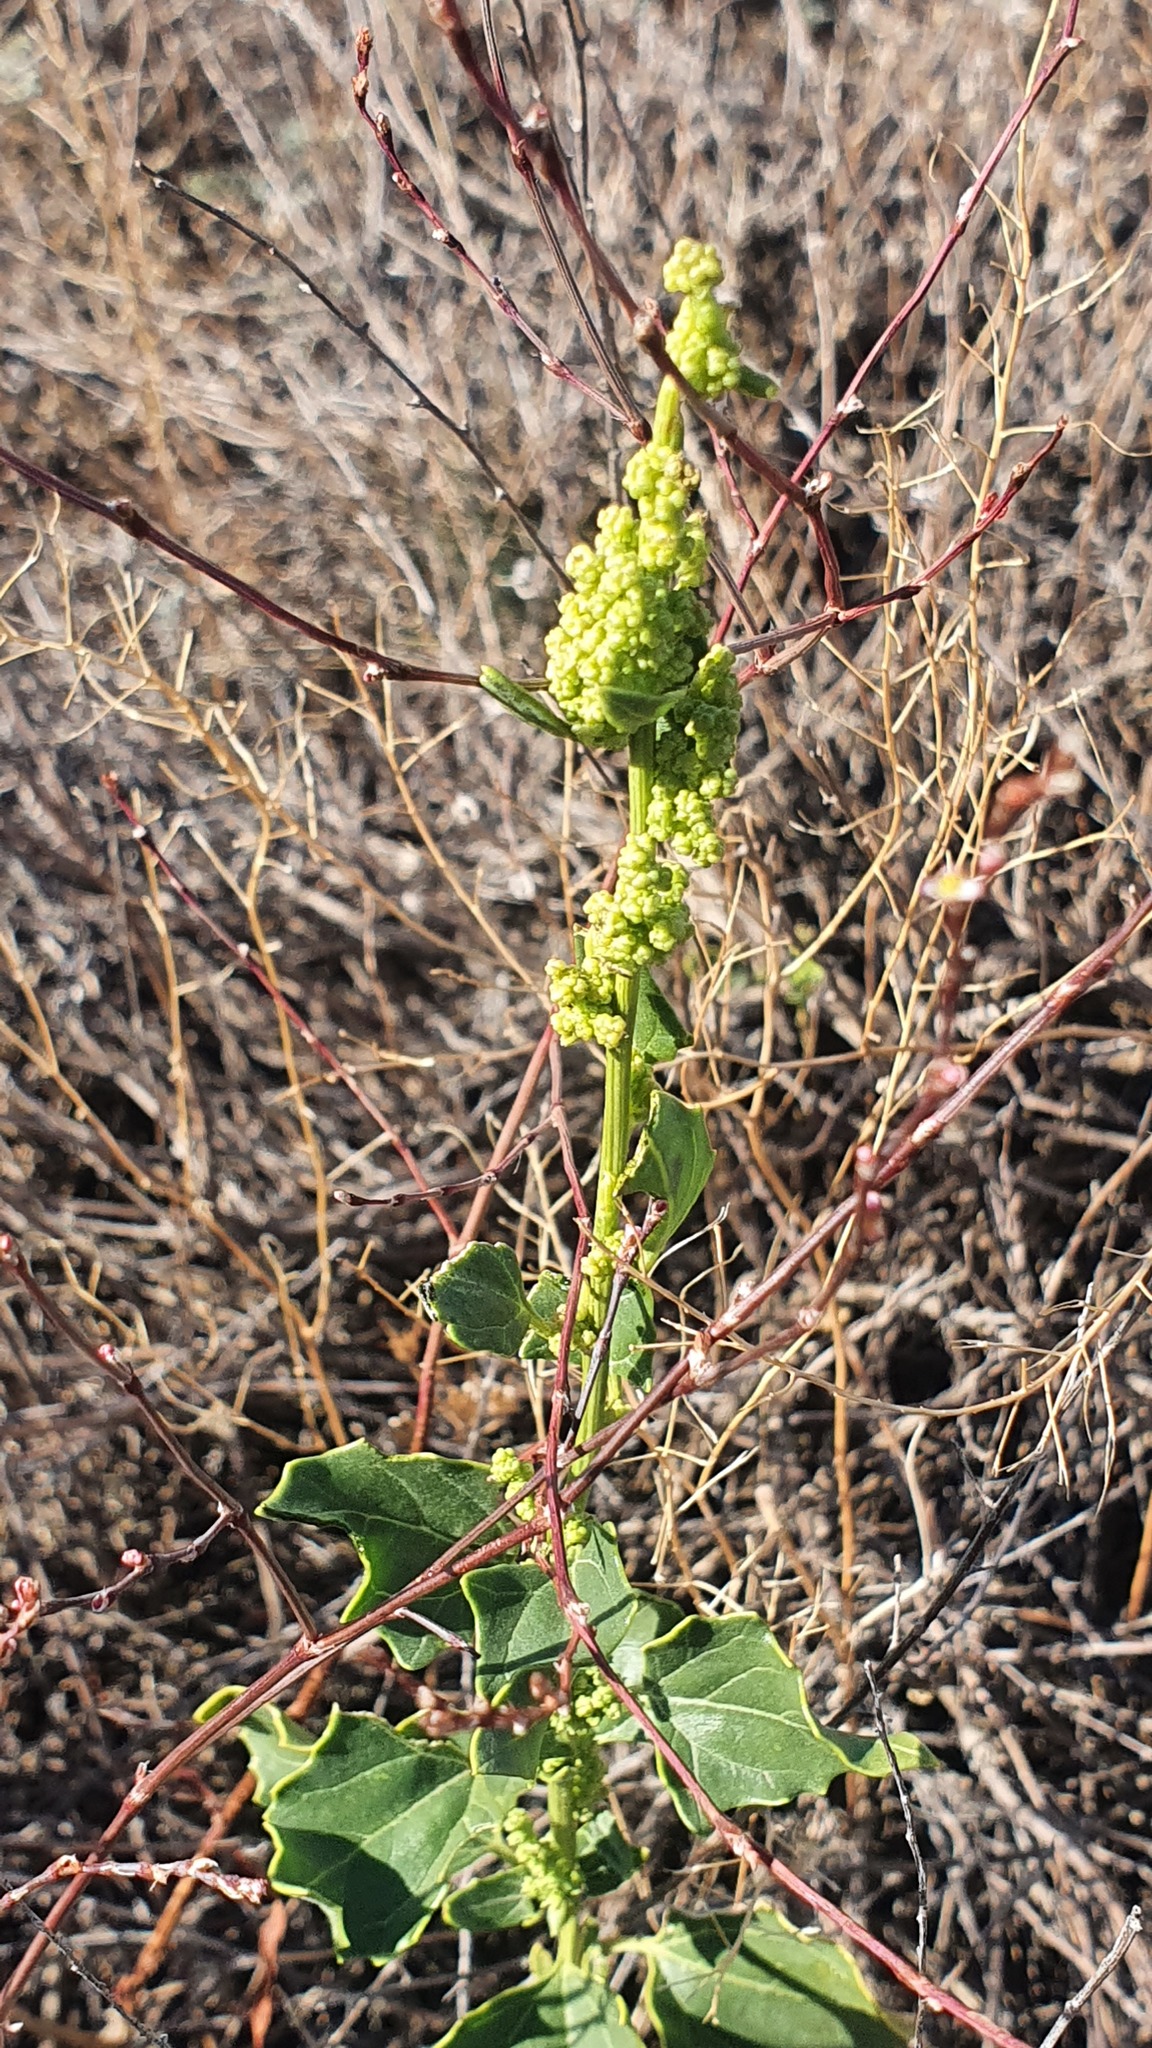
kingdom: Plantae
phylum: Tracheophyta
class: Magnoliopsida
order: Caryophyllales
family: Amaranthaceae
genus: Oxybasis
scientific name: Oxybasis urbica
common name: City goosefoot
